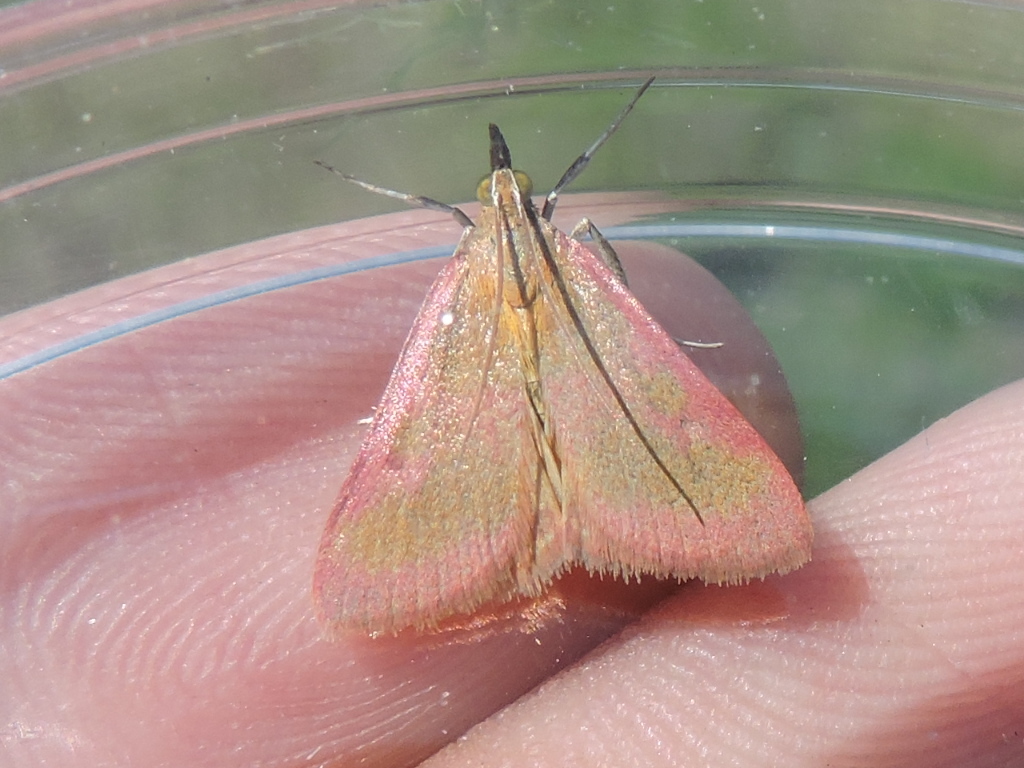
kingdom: Animalia
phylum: Arthropoda
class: Insecta
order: Lepidoptera
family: Crambidae
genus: Pyrausta
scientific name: Pyrausta laticlavia
